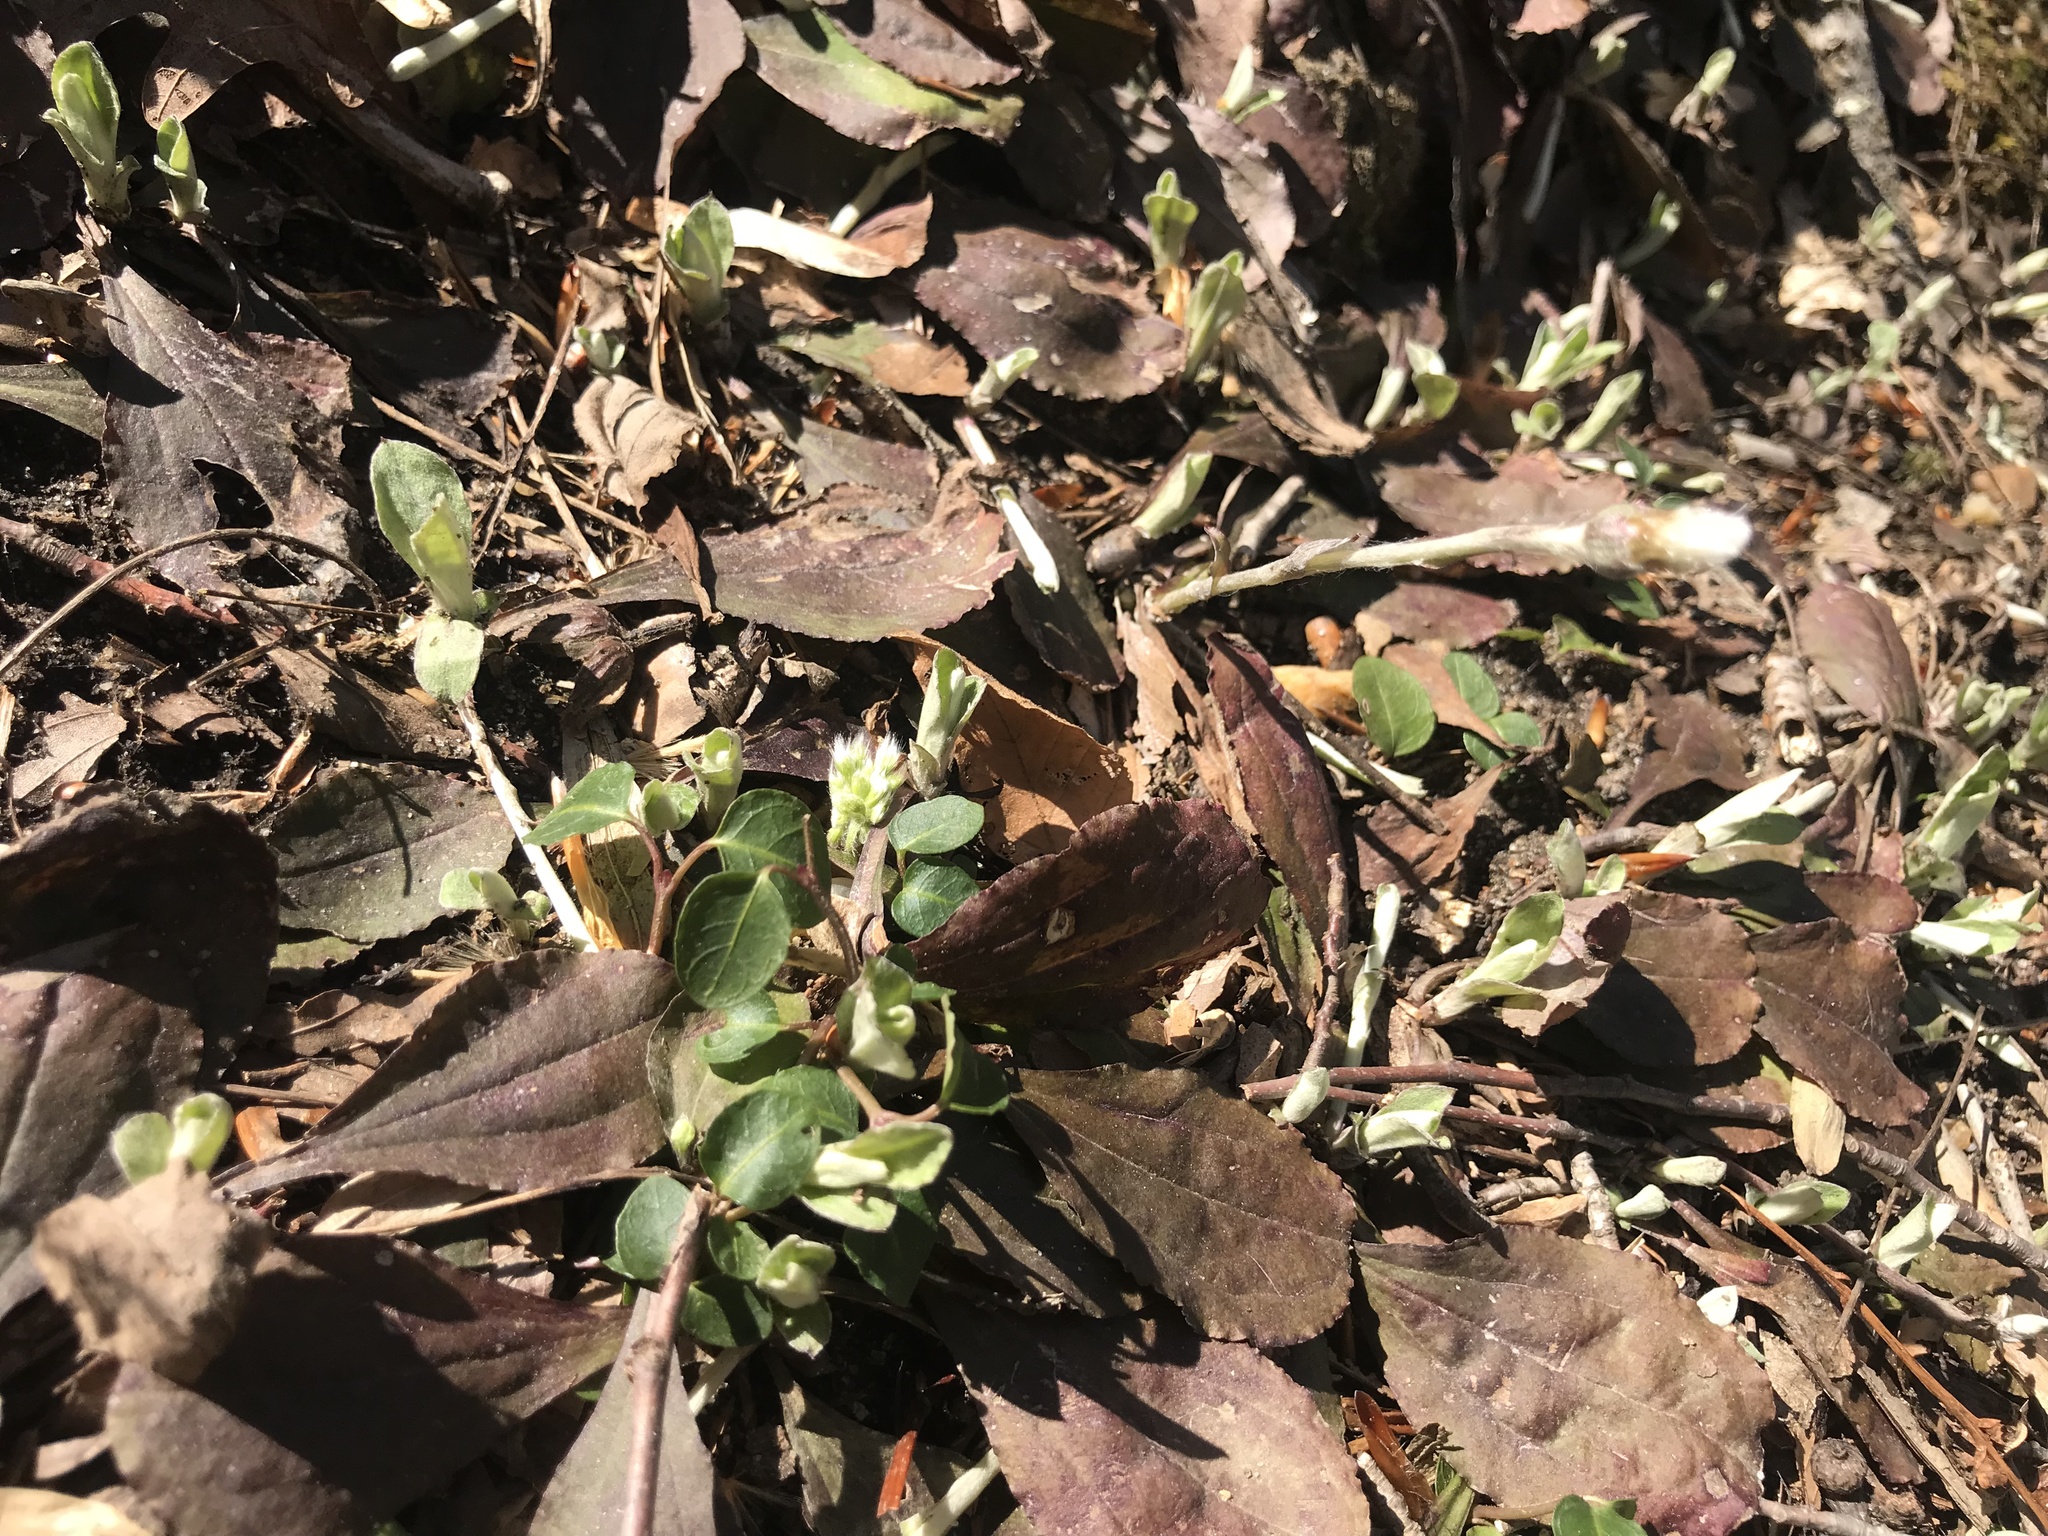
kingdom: Plantae
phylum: Tracheophyta
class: Magnoliopsida
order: Gentianales
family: Rubiaceae
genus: Mitchella
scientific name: Mitchella repens
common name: Partridge-berry
